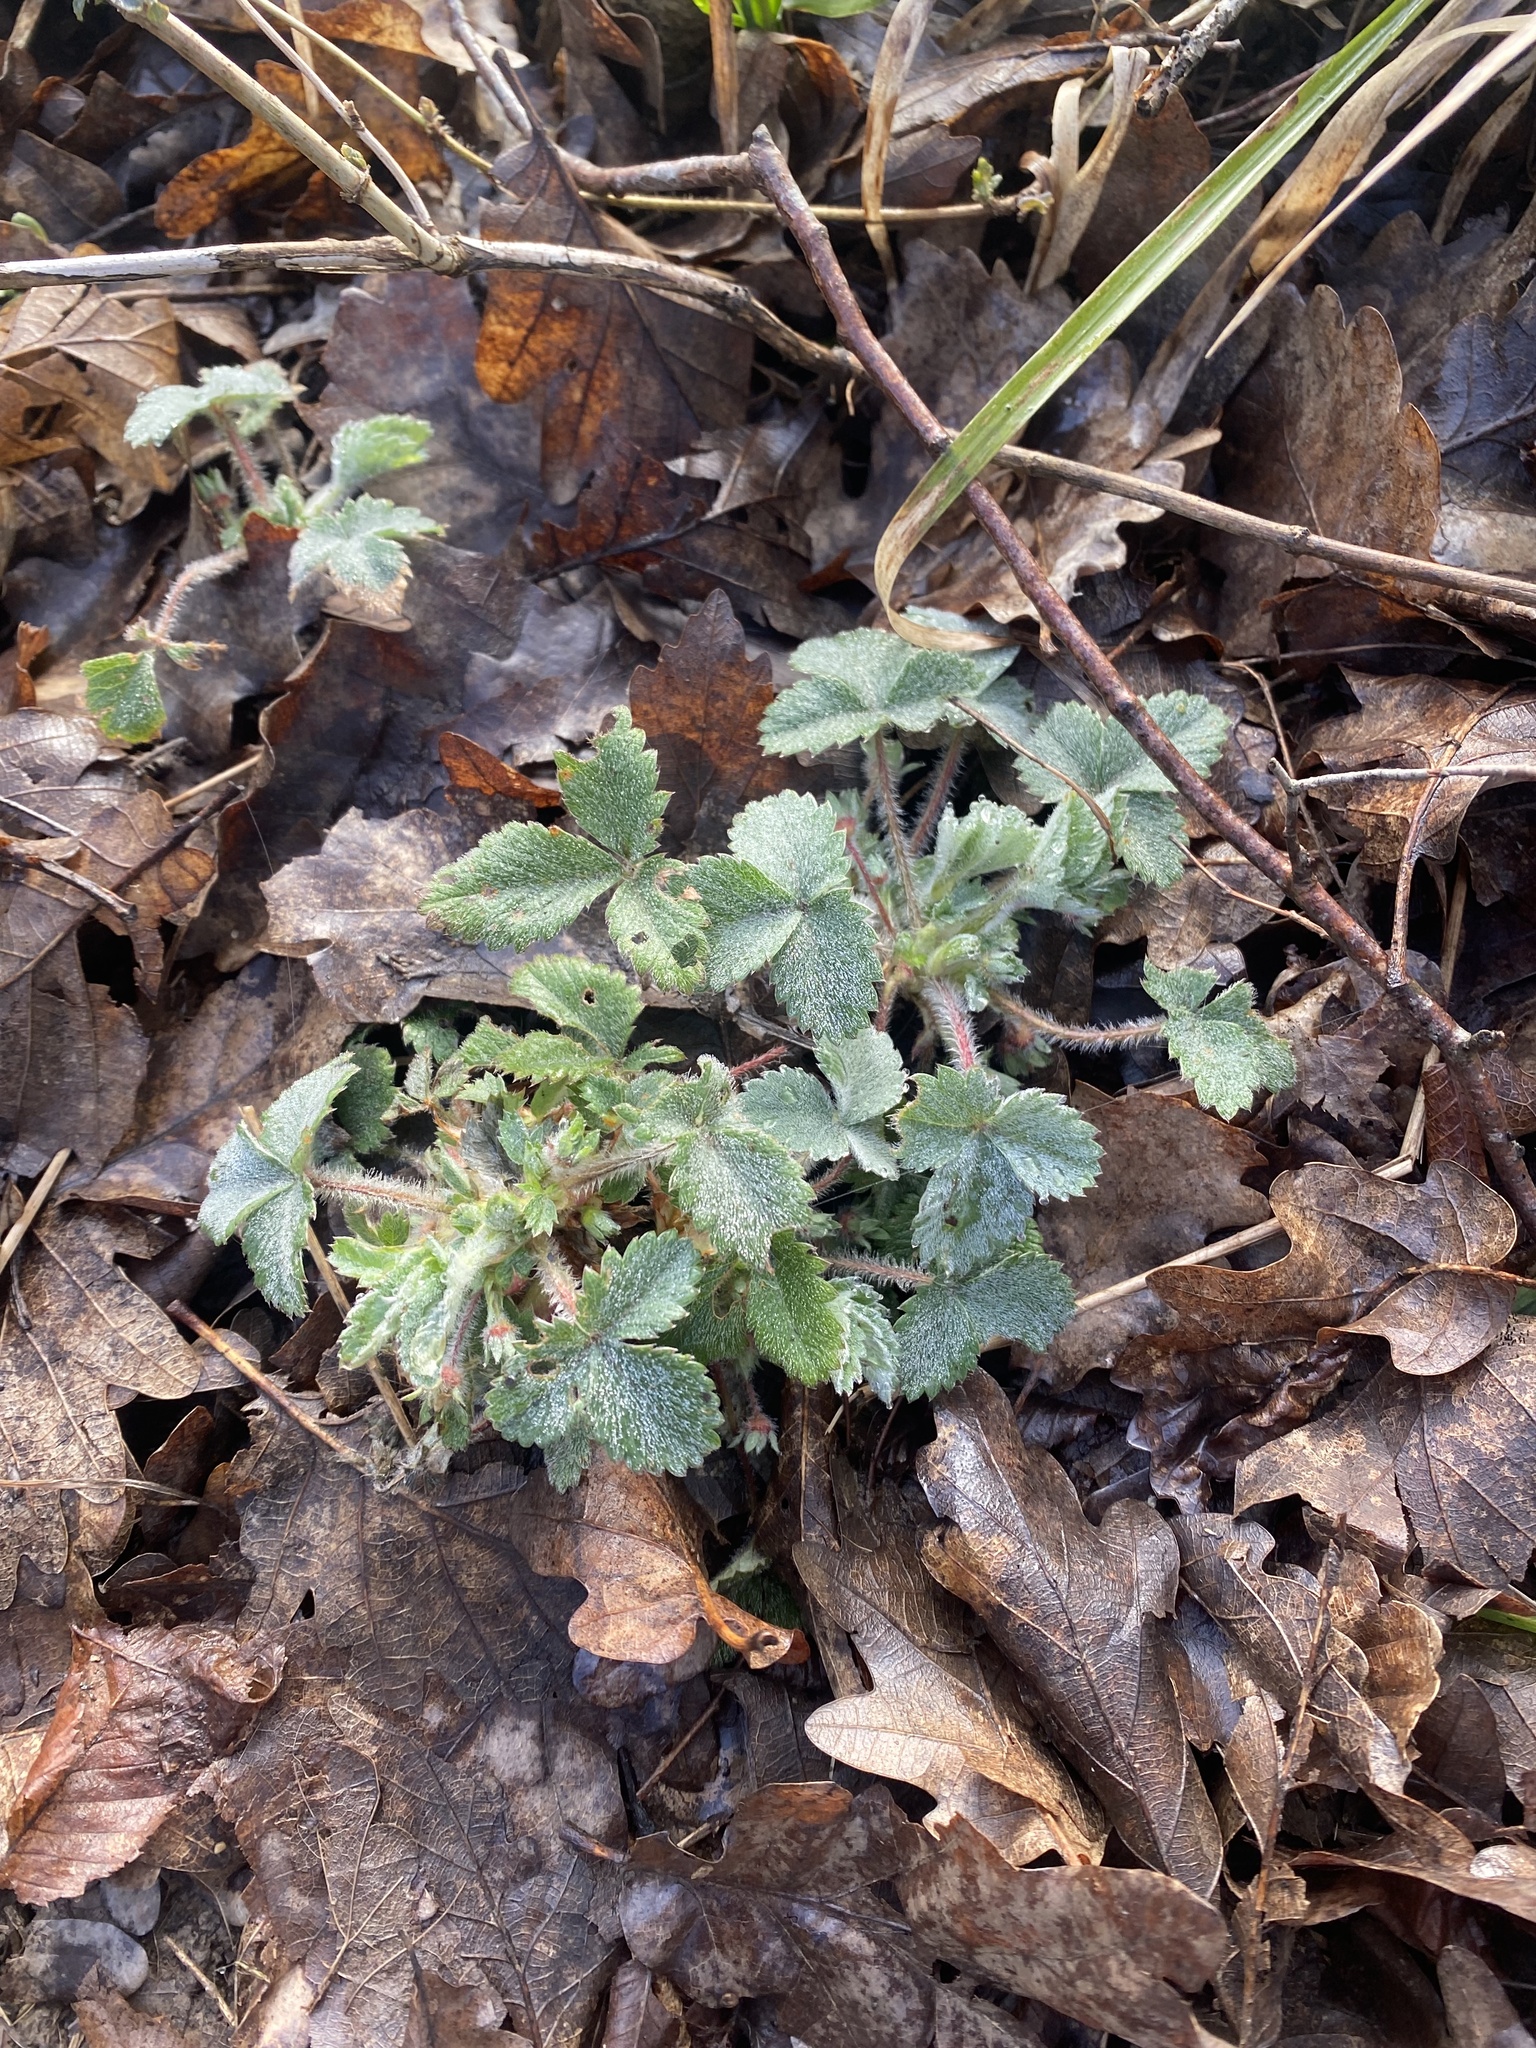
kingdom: Plantae
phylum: Tracheophyta
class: Magnoliopsida
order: Rosales
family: Rosaceae
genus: Potentilla
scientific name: Potentilla micrantha
